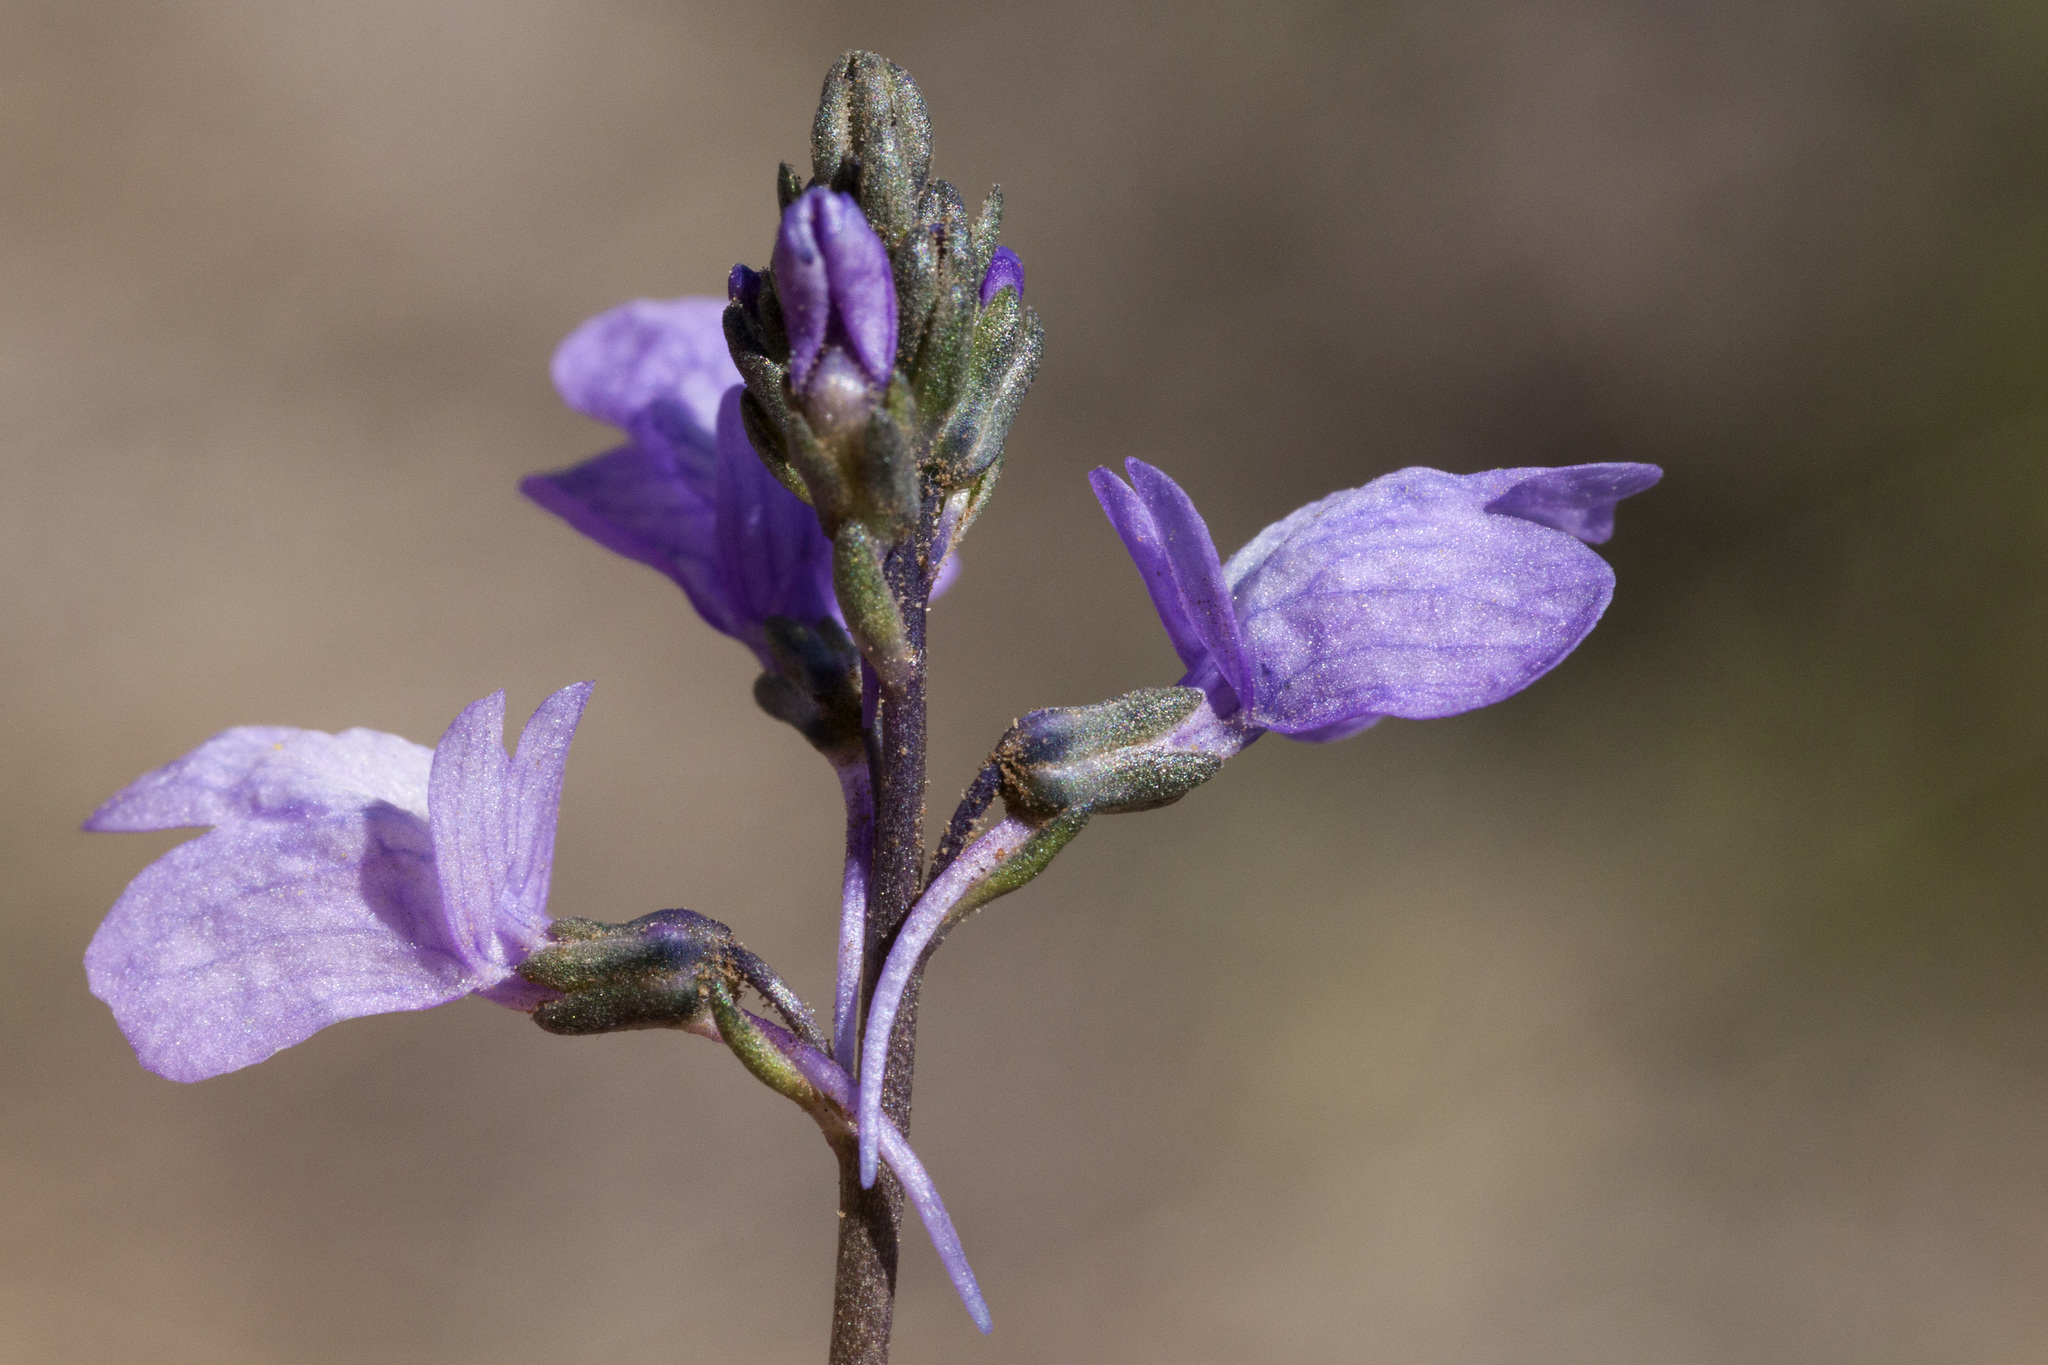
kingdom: Plantae
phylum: Tracheophyta
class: Magnoliopsida
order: Lamiales
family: Plantaginaceae
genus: Nuttallanthus
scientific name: Nuttallanthus texanus
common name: Texas toadflax
